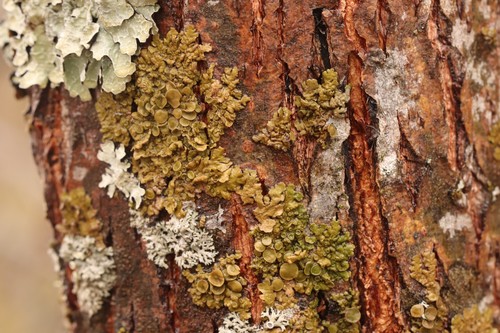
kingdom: Fungi
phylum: Ascomycota
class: Lecanoromycetes
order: Lecanorales
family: Parmeliaceae
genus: Melanohalea
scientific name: Melanohalea
